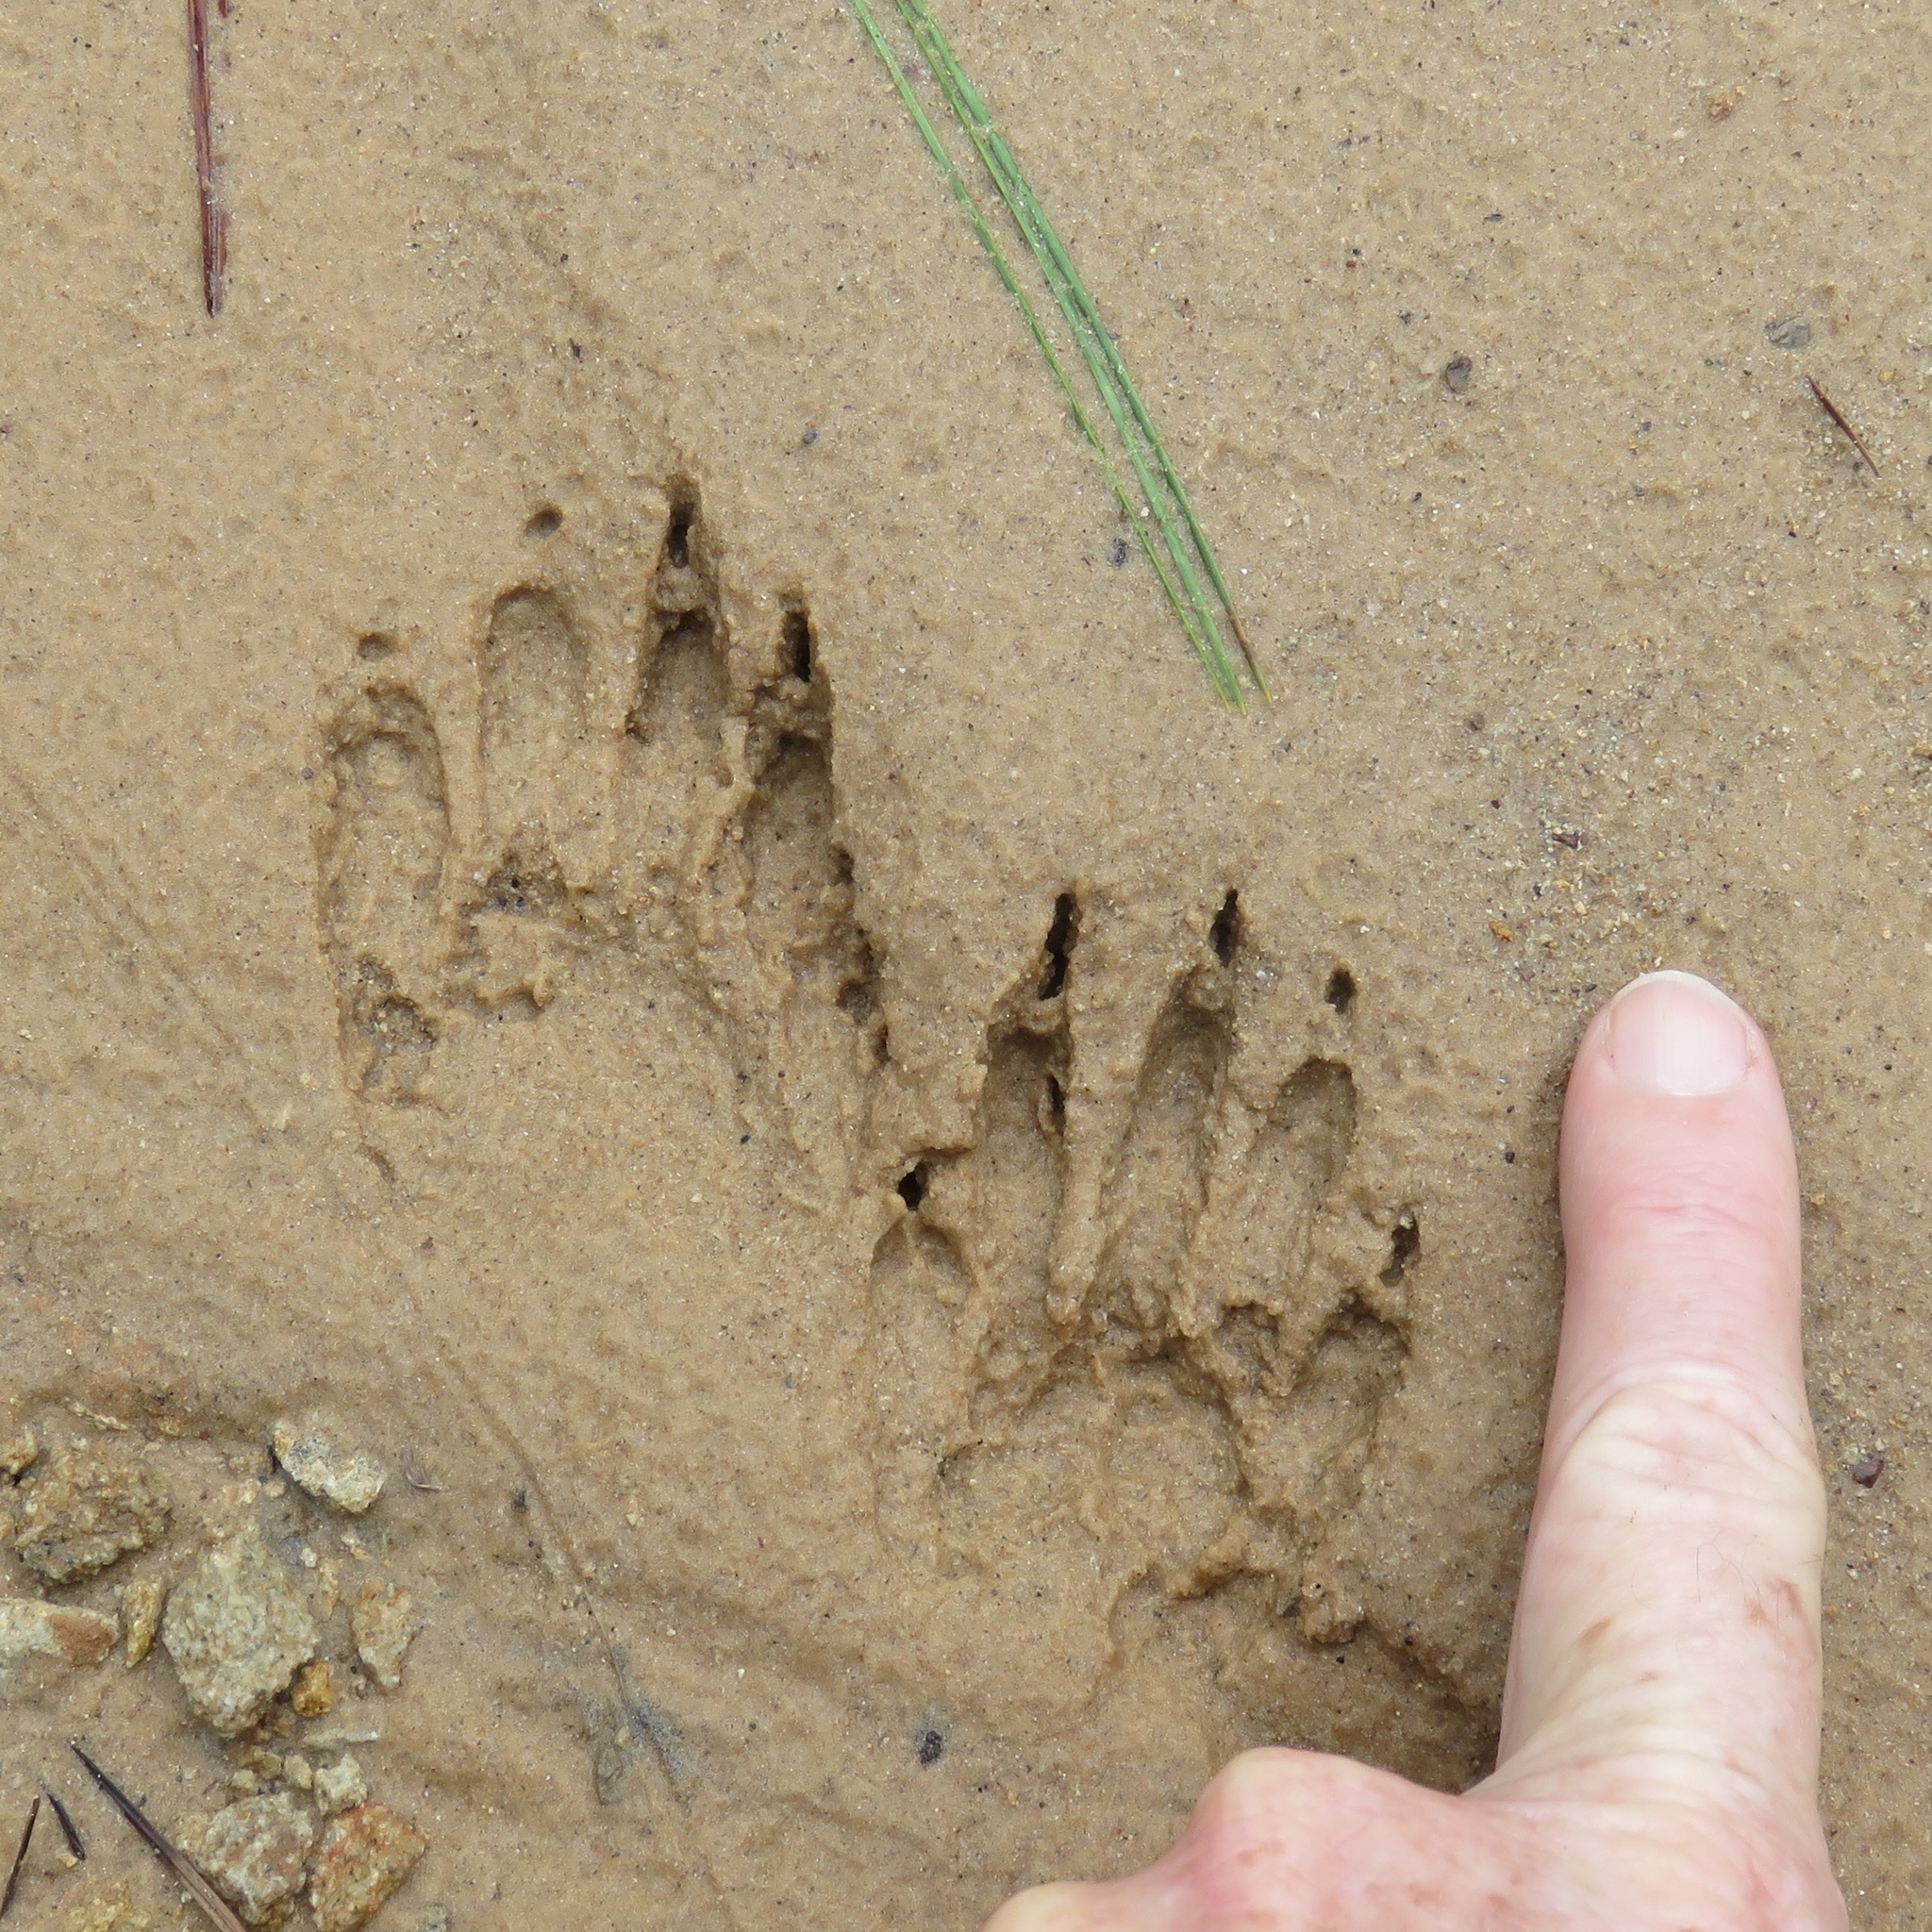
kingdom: Animalia
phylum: Chordata
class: Mammalia
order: Carnivora
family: Procyonidae
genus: Procyon
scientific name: Procyon lotor
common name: Raccoon
